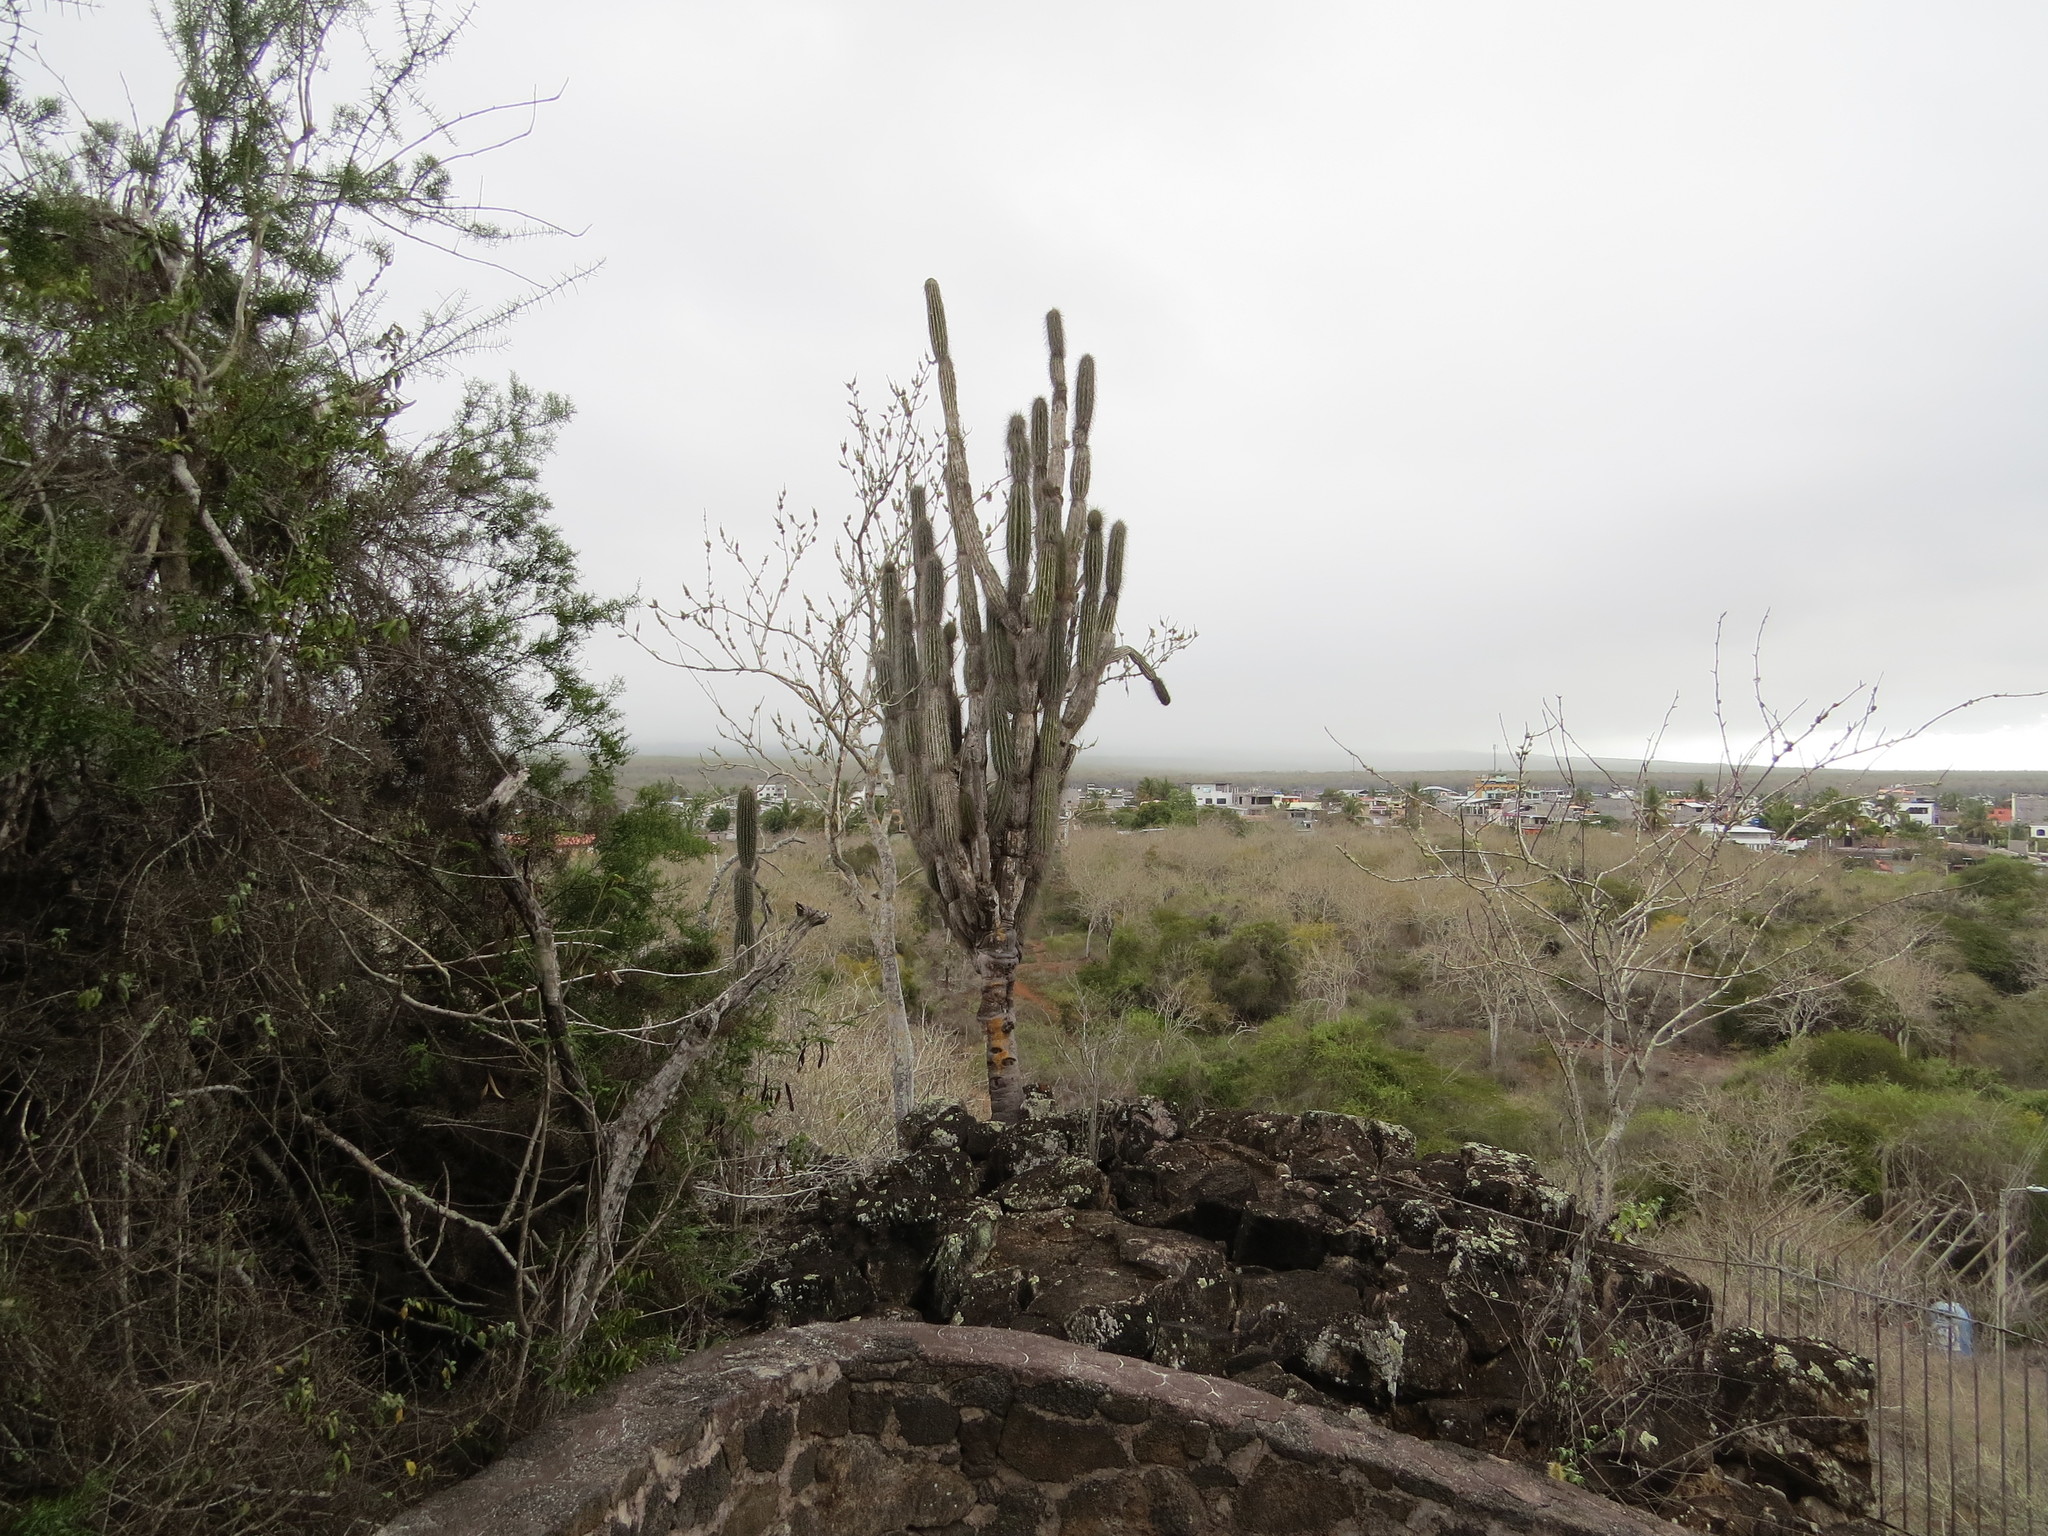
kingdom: Plantae
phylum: Tracheophyta
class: Magnoliopsida
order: Caryophyllales
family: Cactaceae
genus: Jasminocereus
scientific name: Jasminocereus thouarsii
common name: Candelabra cactus
